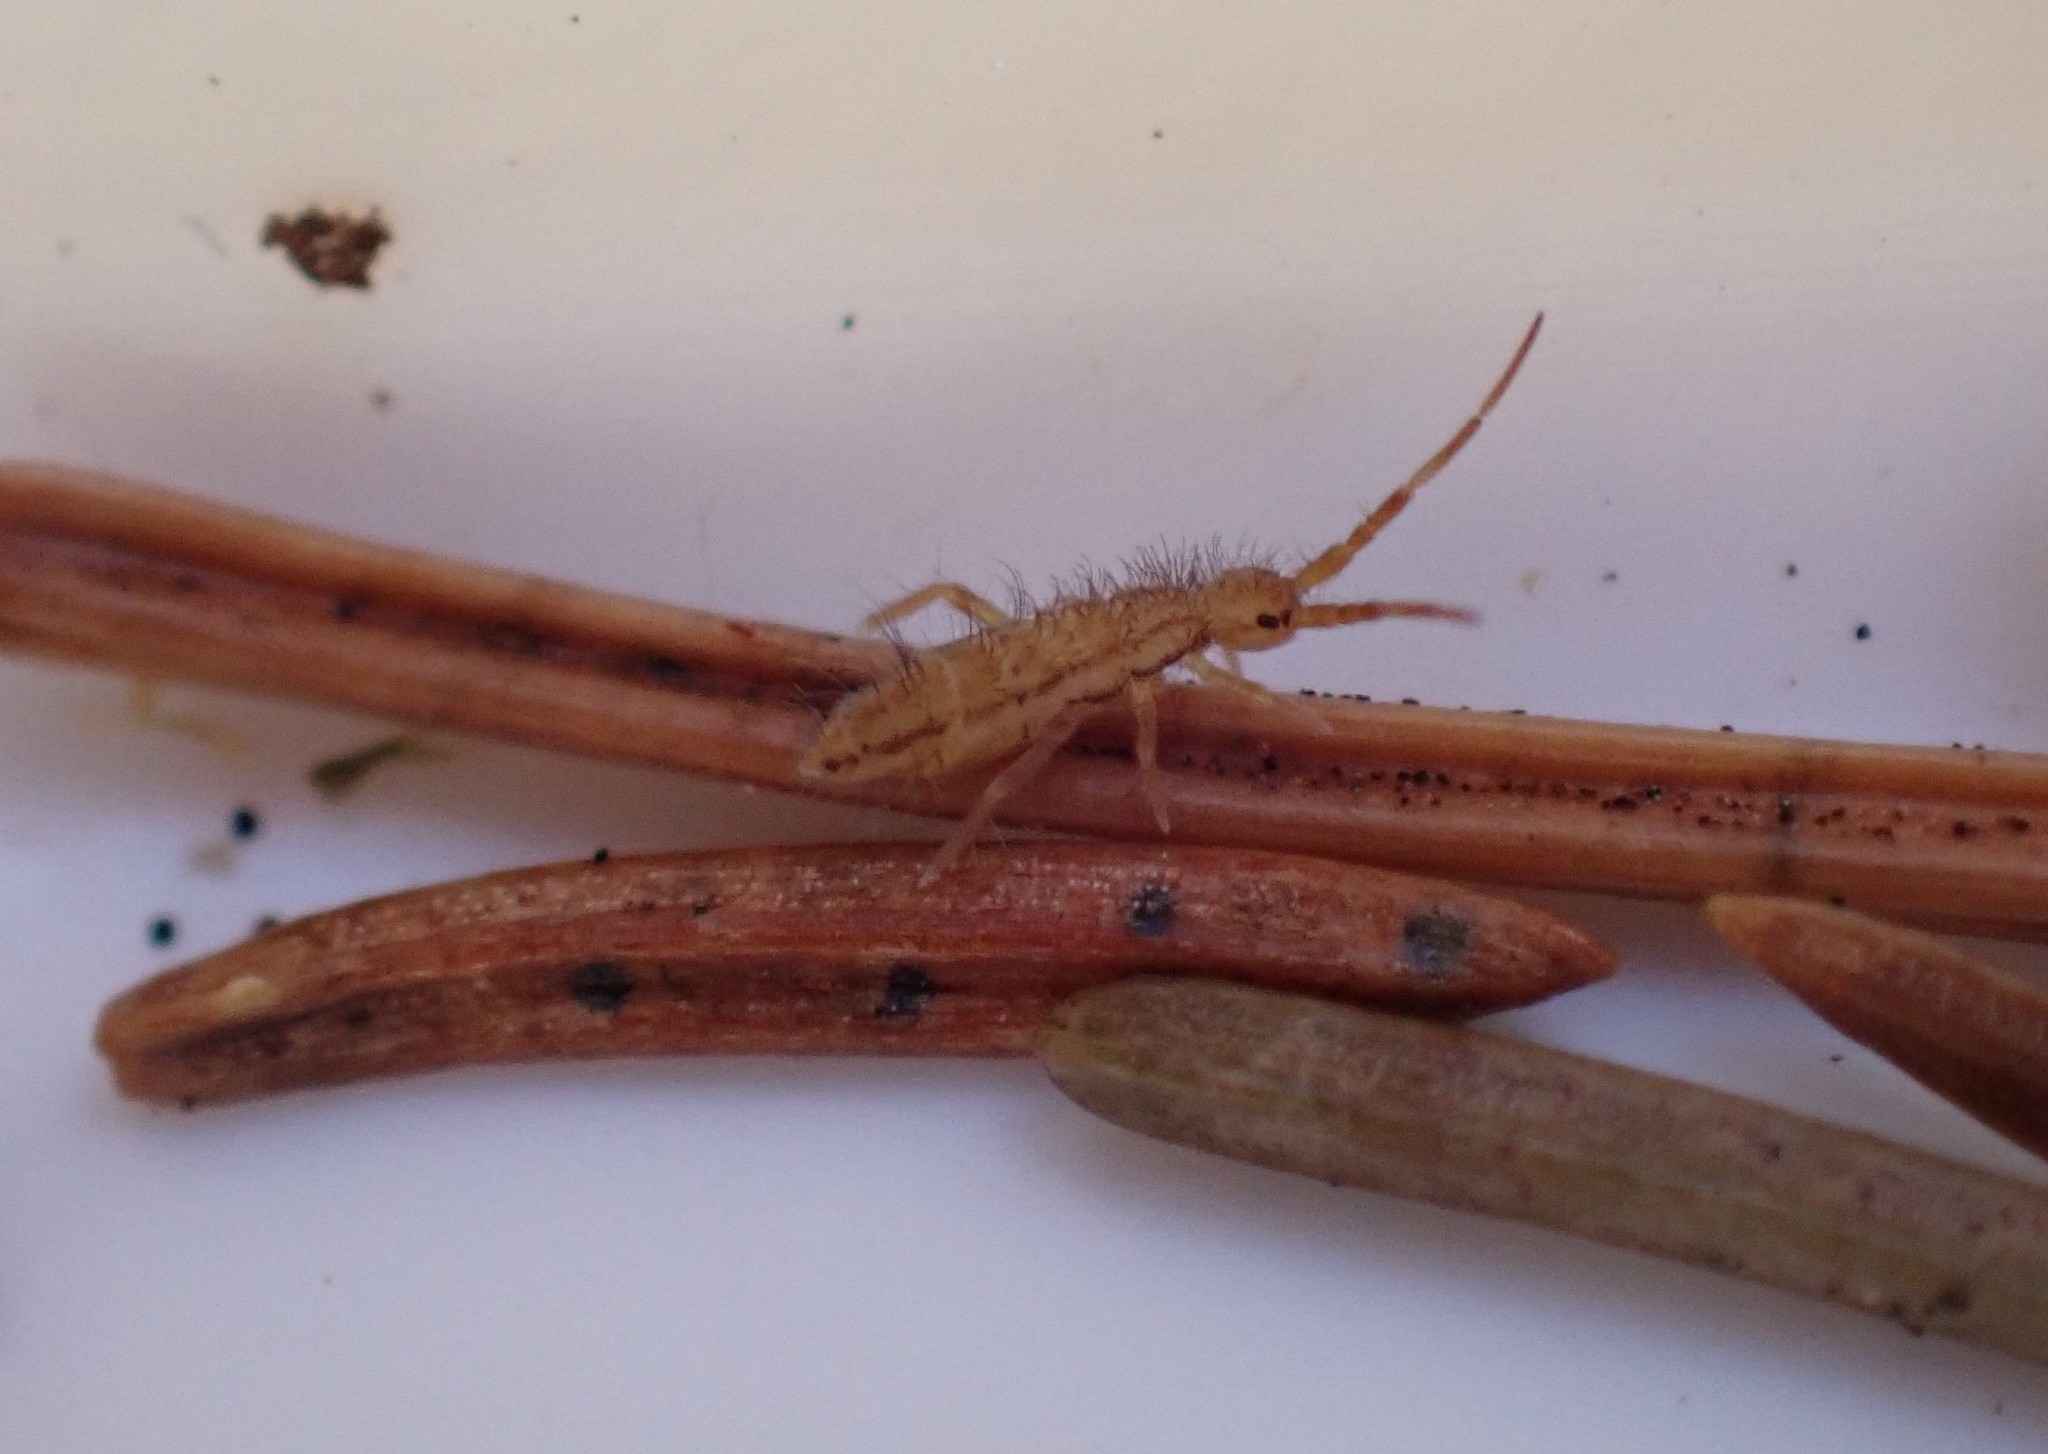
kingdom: Animalia
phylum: Arthropoda
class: Collembola
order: Entomobryomorpha
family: Entomobryidae
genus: Entomobrya
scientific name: Entomobrya nivalis
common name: Cosmopolitan springtail
